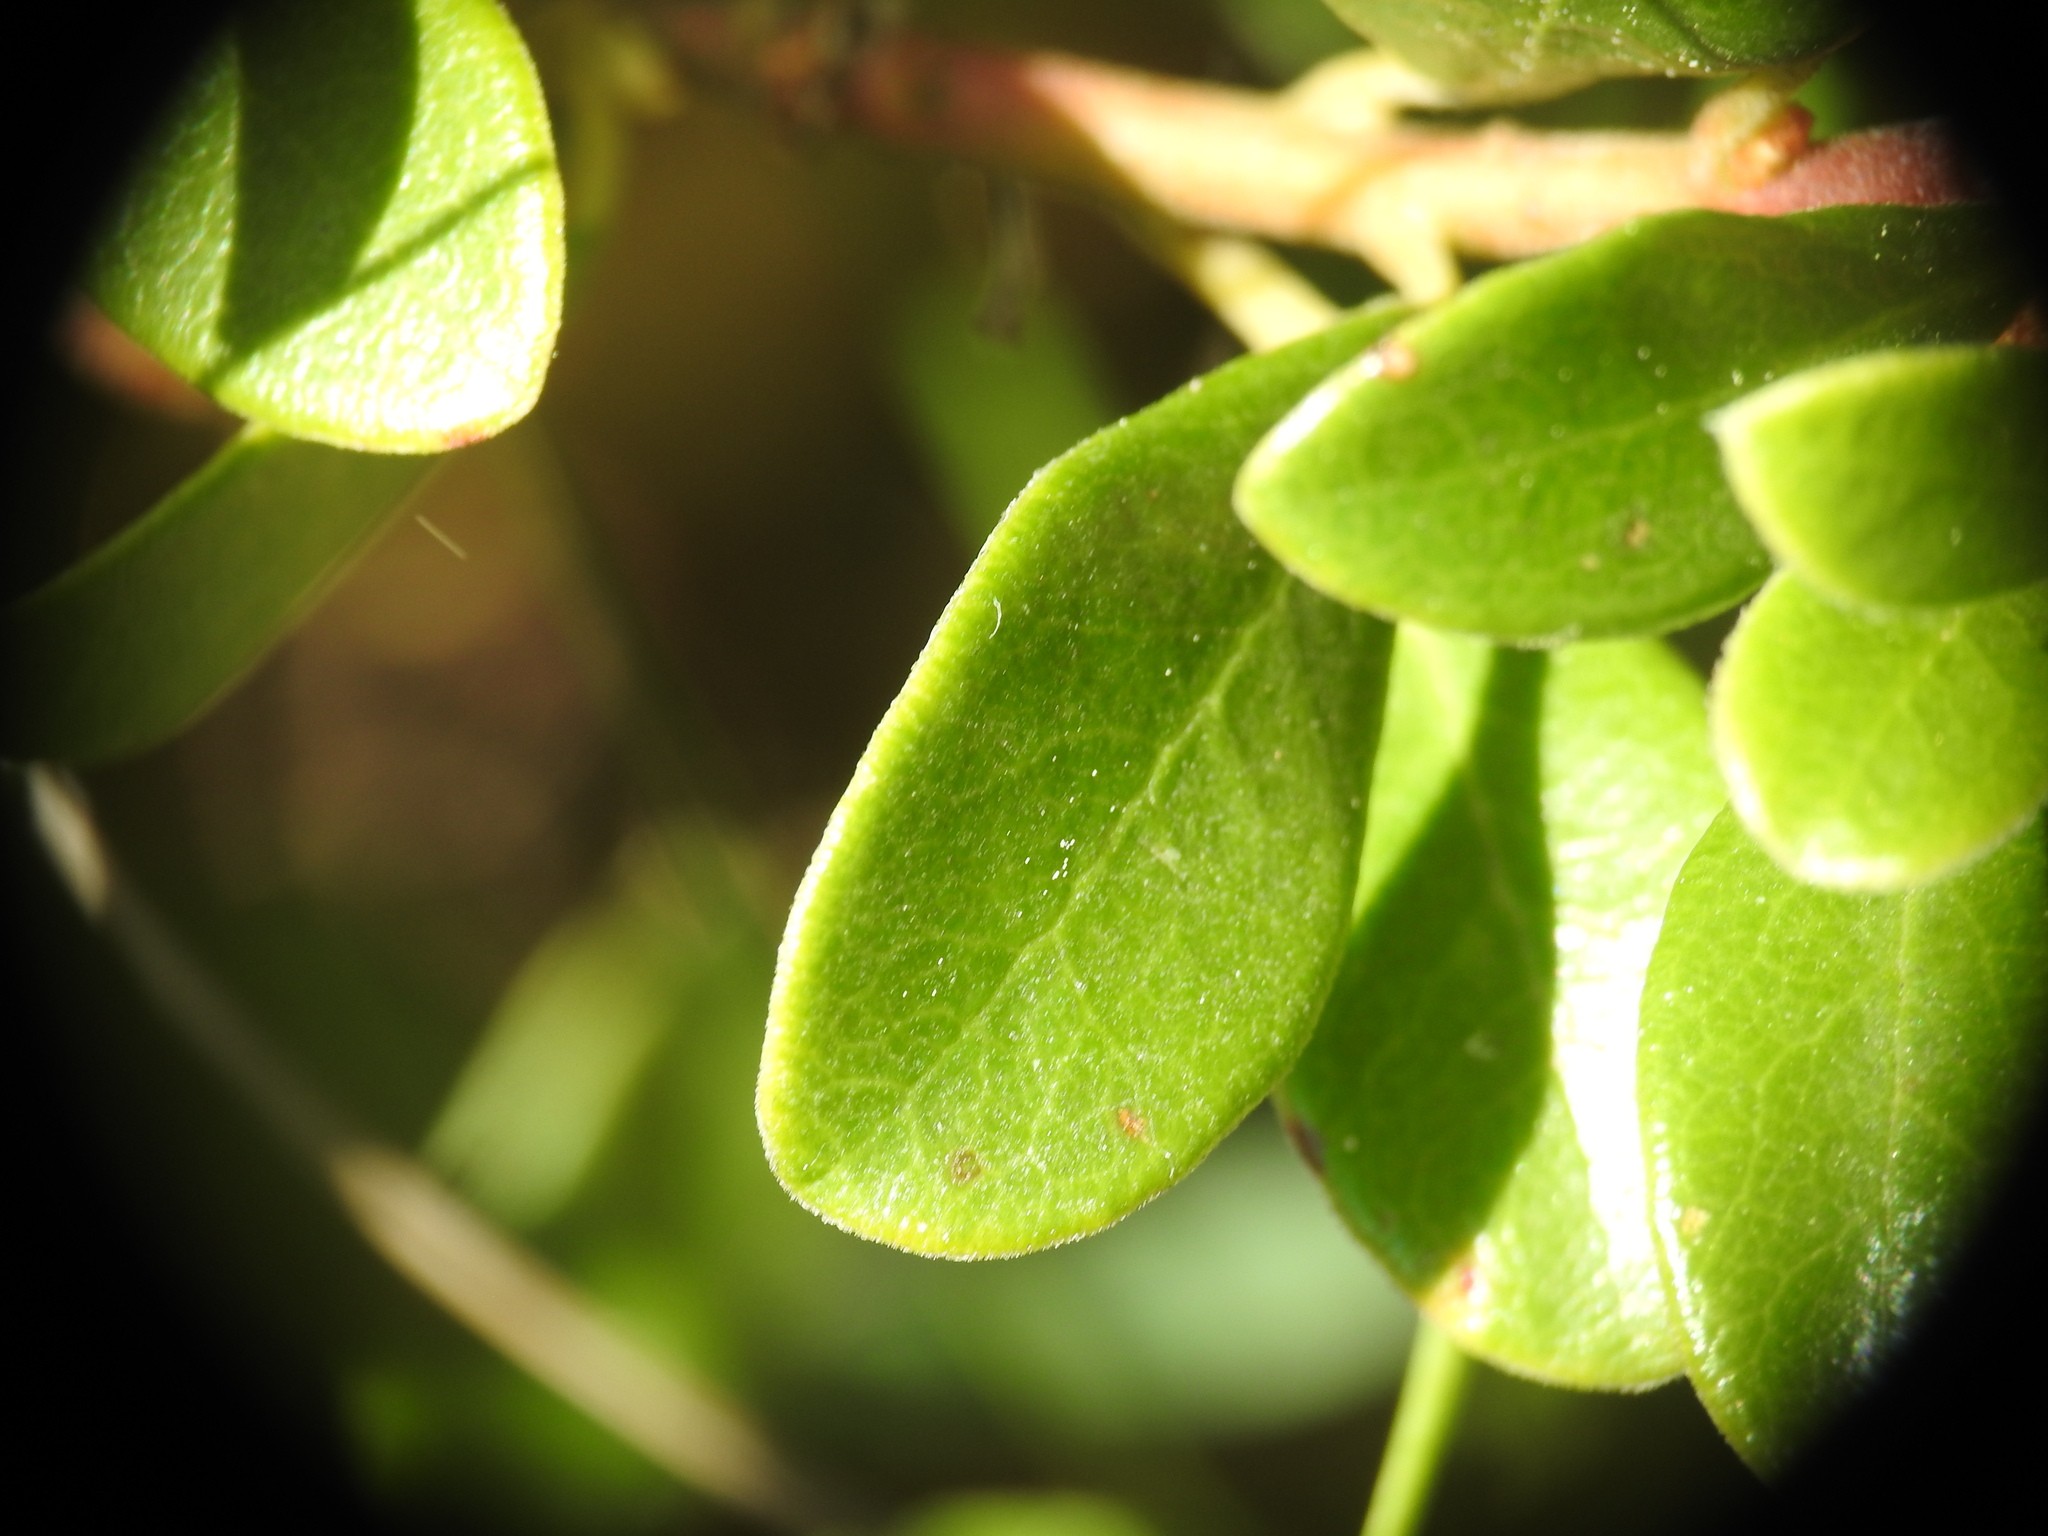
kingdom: Plantae
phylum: Tracheophyta
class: Magnoliopsida
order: Ericales
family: Ericaceae
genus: Arctostaphylos
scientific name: Arctostaphylos uva-ursi
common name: Bearberry
